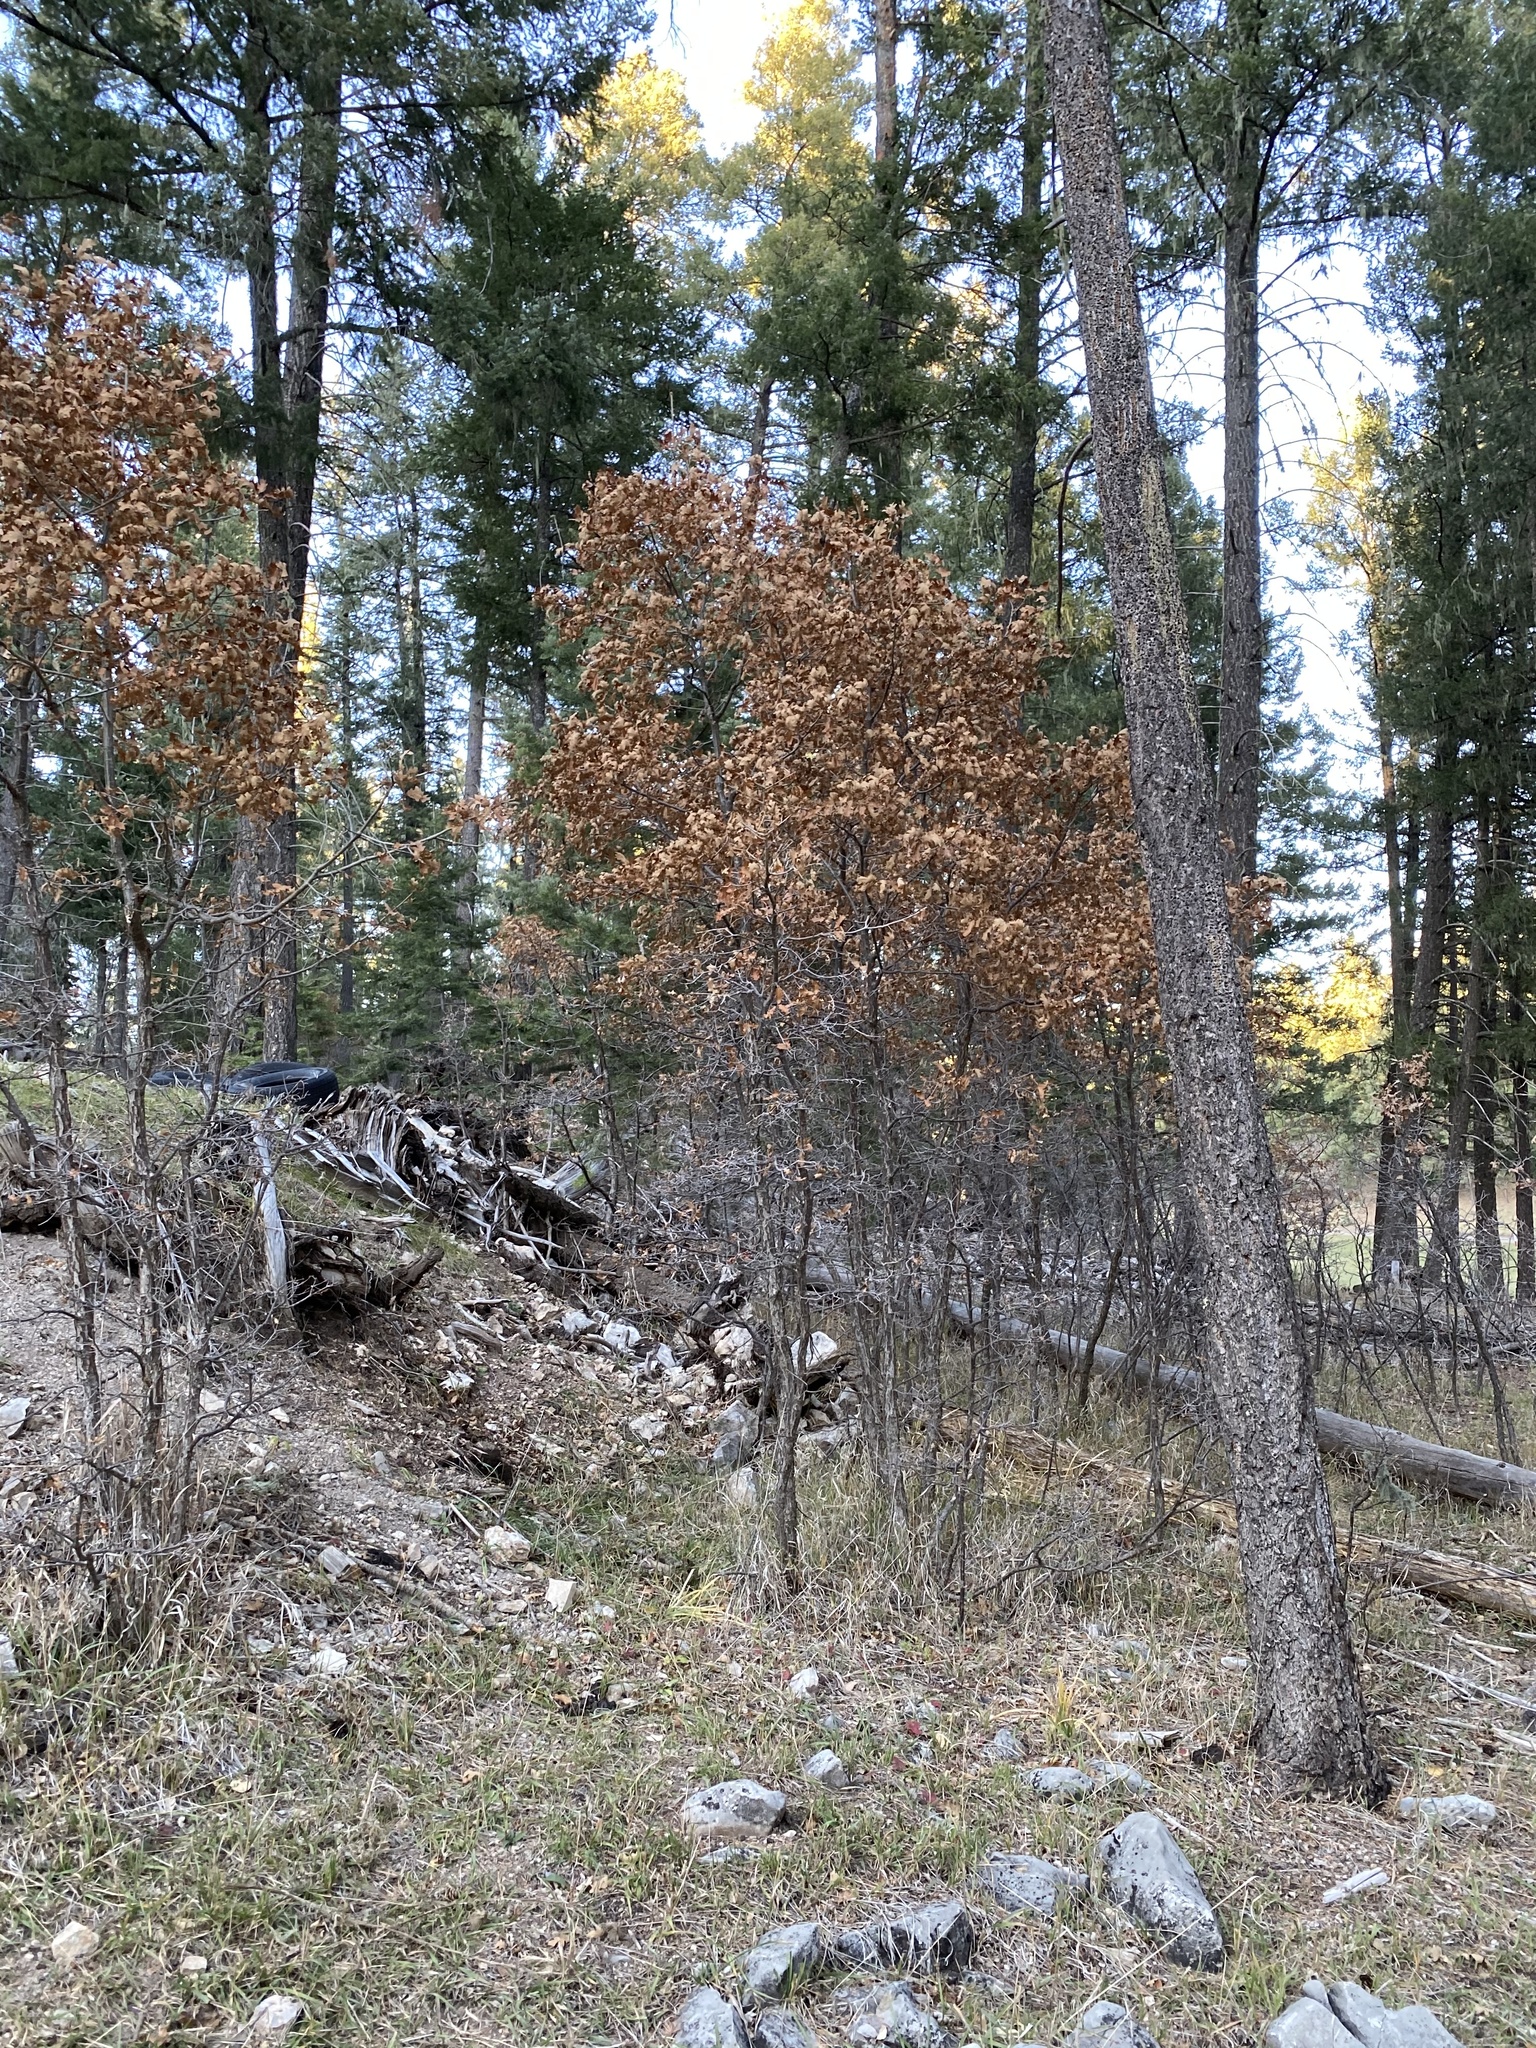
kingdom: Plantae
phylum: Tracheophyta
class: Magnoliopsida
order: Fagales
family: Fagaceae
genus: Quercus
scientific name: Quercus gambelii
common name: Gambel oak
